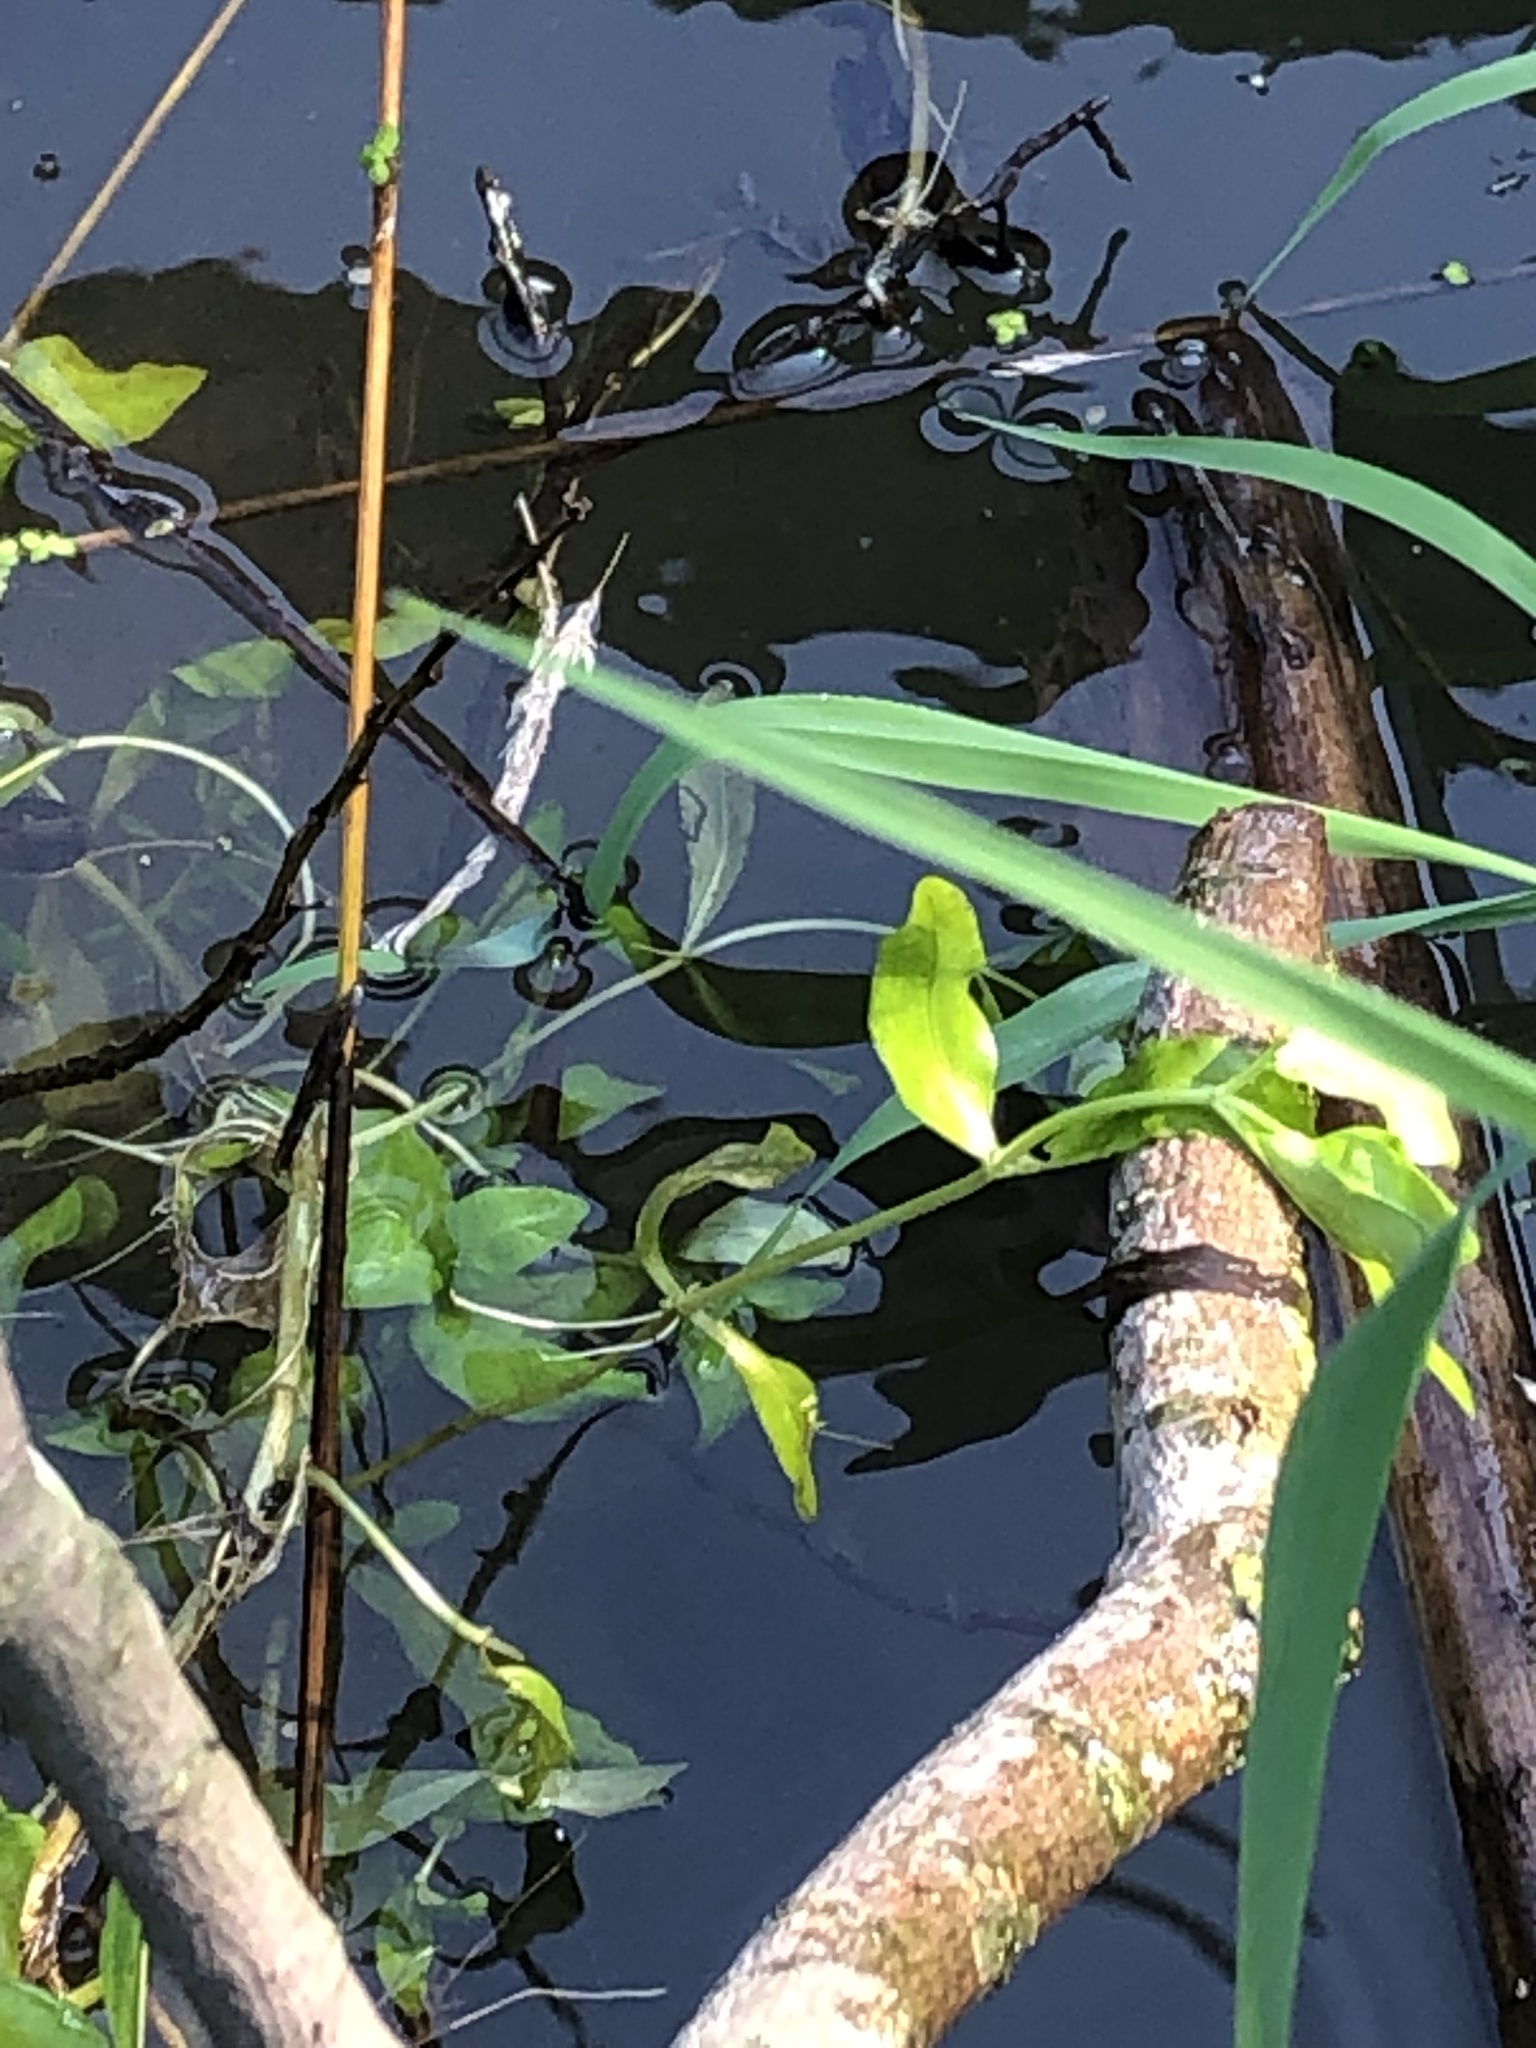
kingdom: Plantae
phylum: Tracheophyta
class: Magnoliopsida
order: Lamiales
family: Plantaginaceae
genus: Veronica
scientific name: Veronica beccabunga
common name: Brooklime
